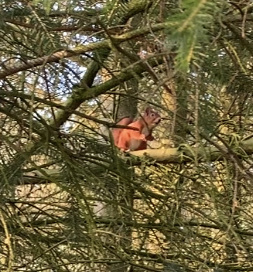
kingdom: Animalia
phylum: Chordata
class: Mammalia
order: Rodentia
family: Sciuridae
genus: Sciurus
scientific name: Sciurus vulgaris
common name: Eurasian red squirrel
